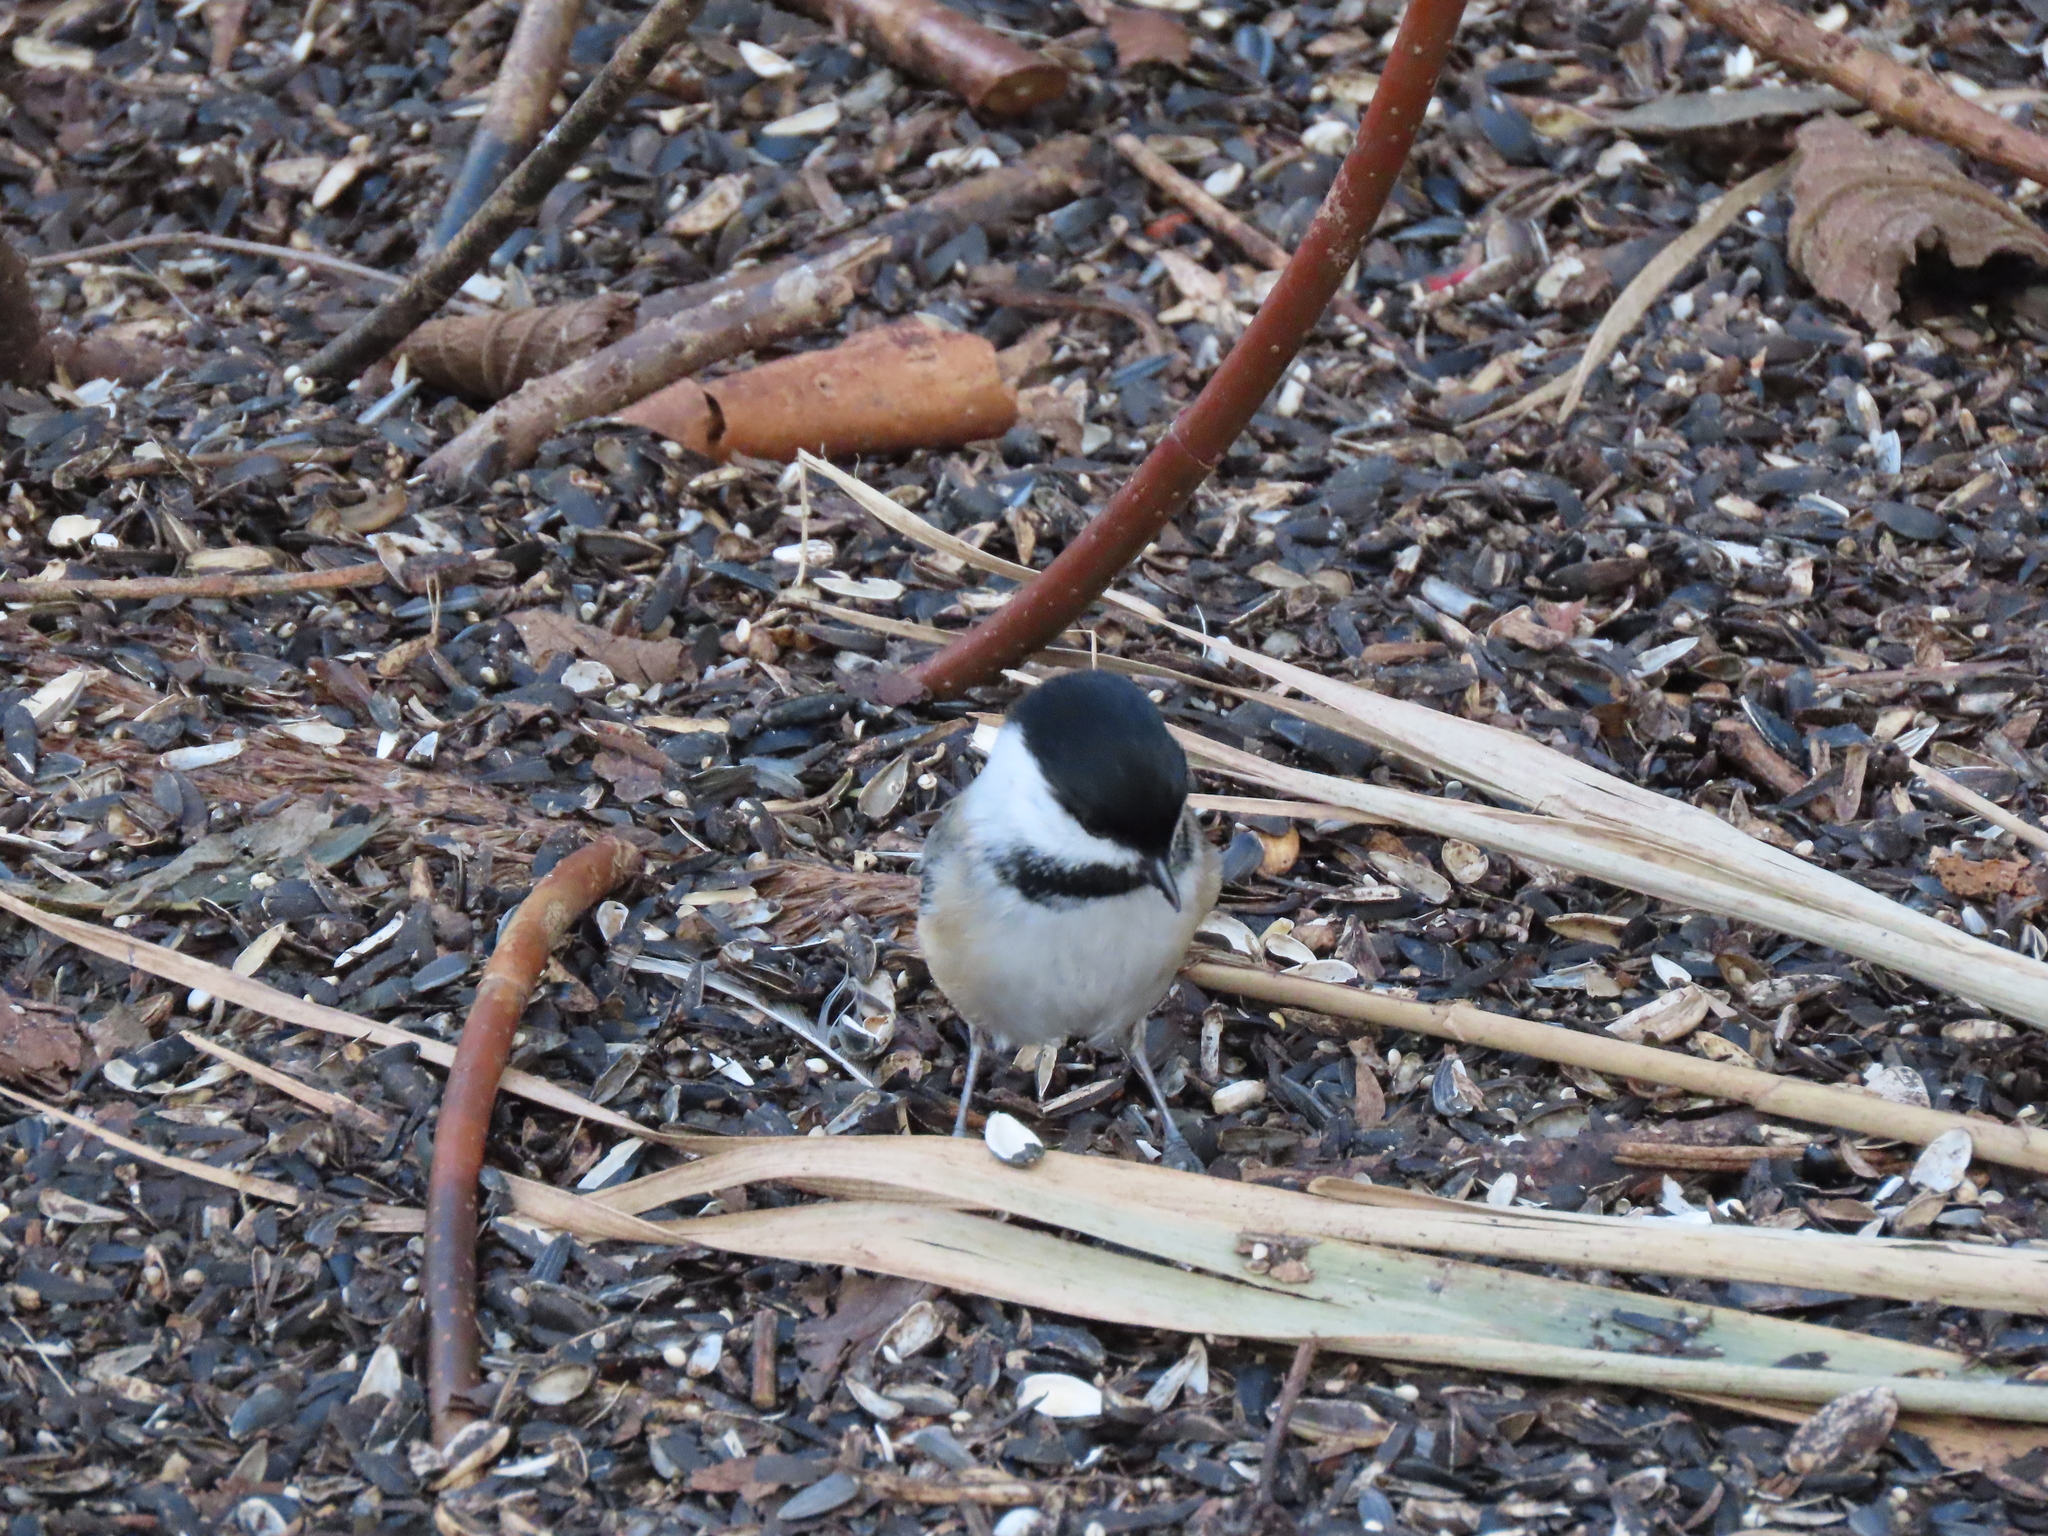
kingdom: Animalia
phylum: Chordata
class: Aves
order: Passeriformes
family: Paridae
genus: Poecile
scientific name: Poecile atricapillus
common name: Black-capped chickadee
